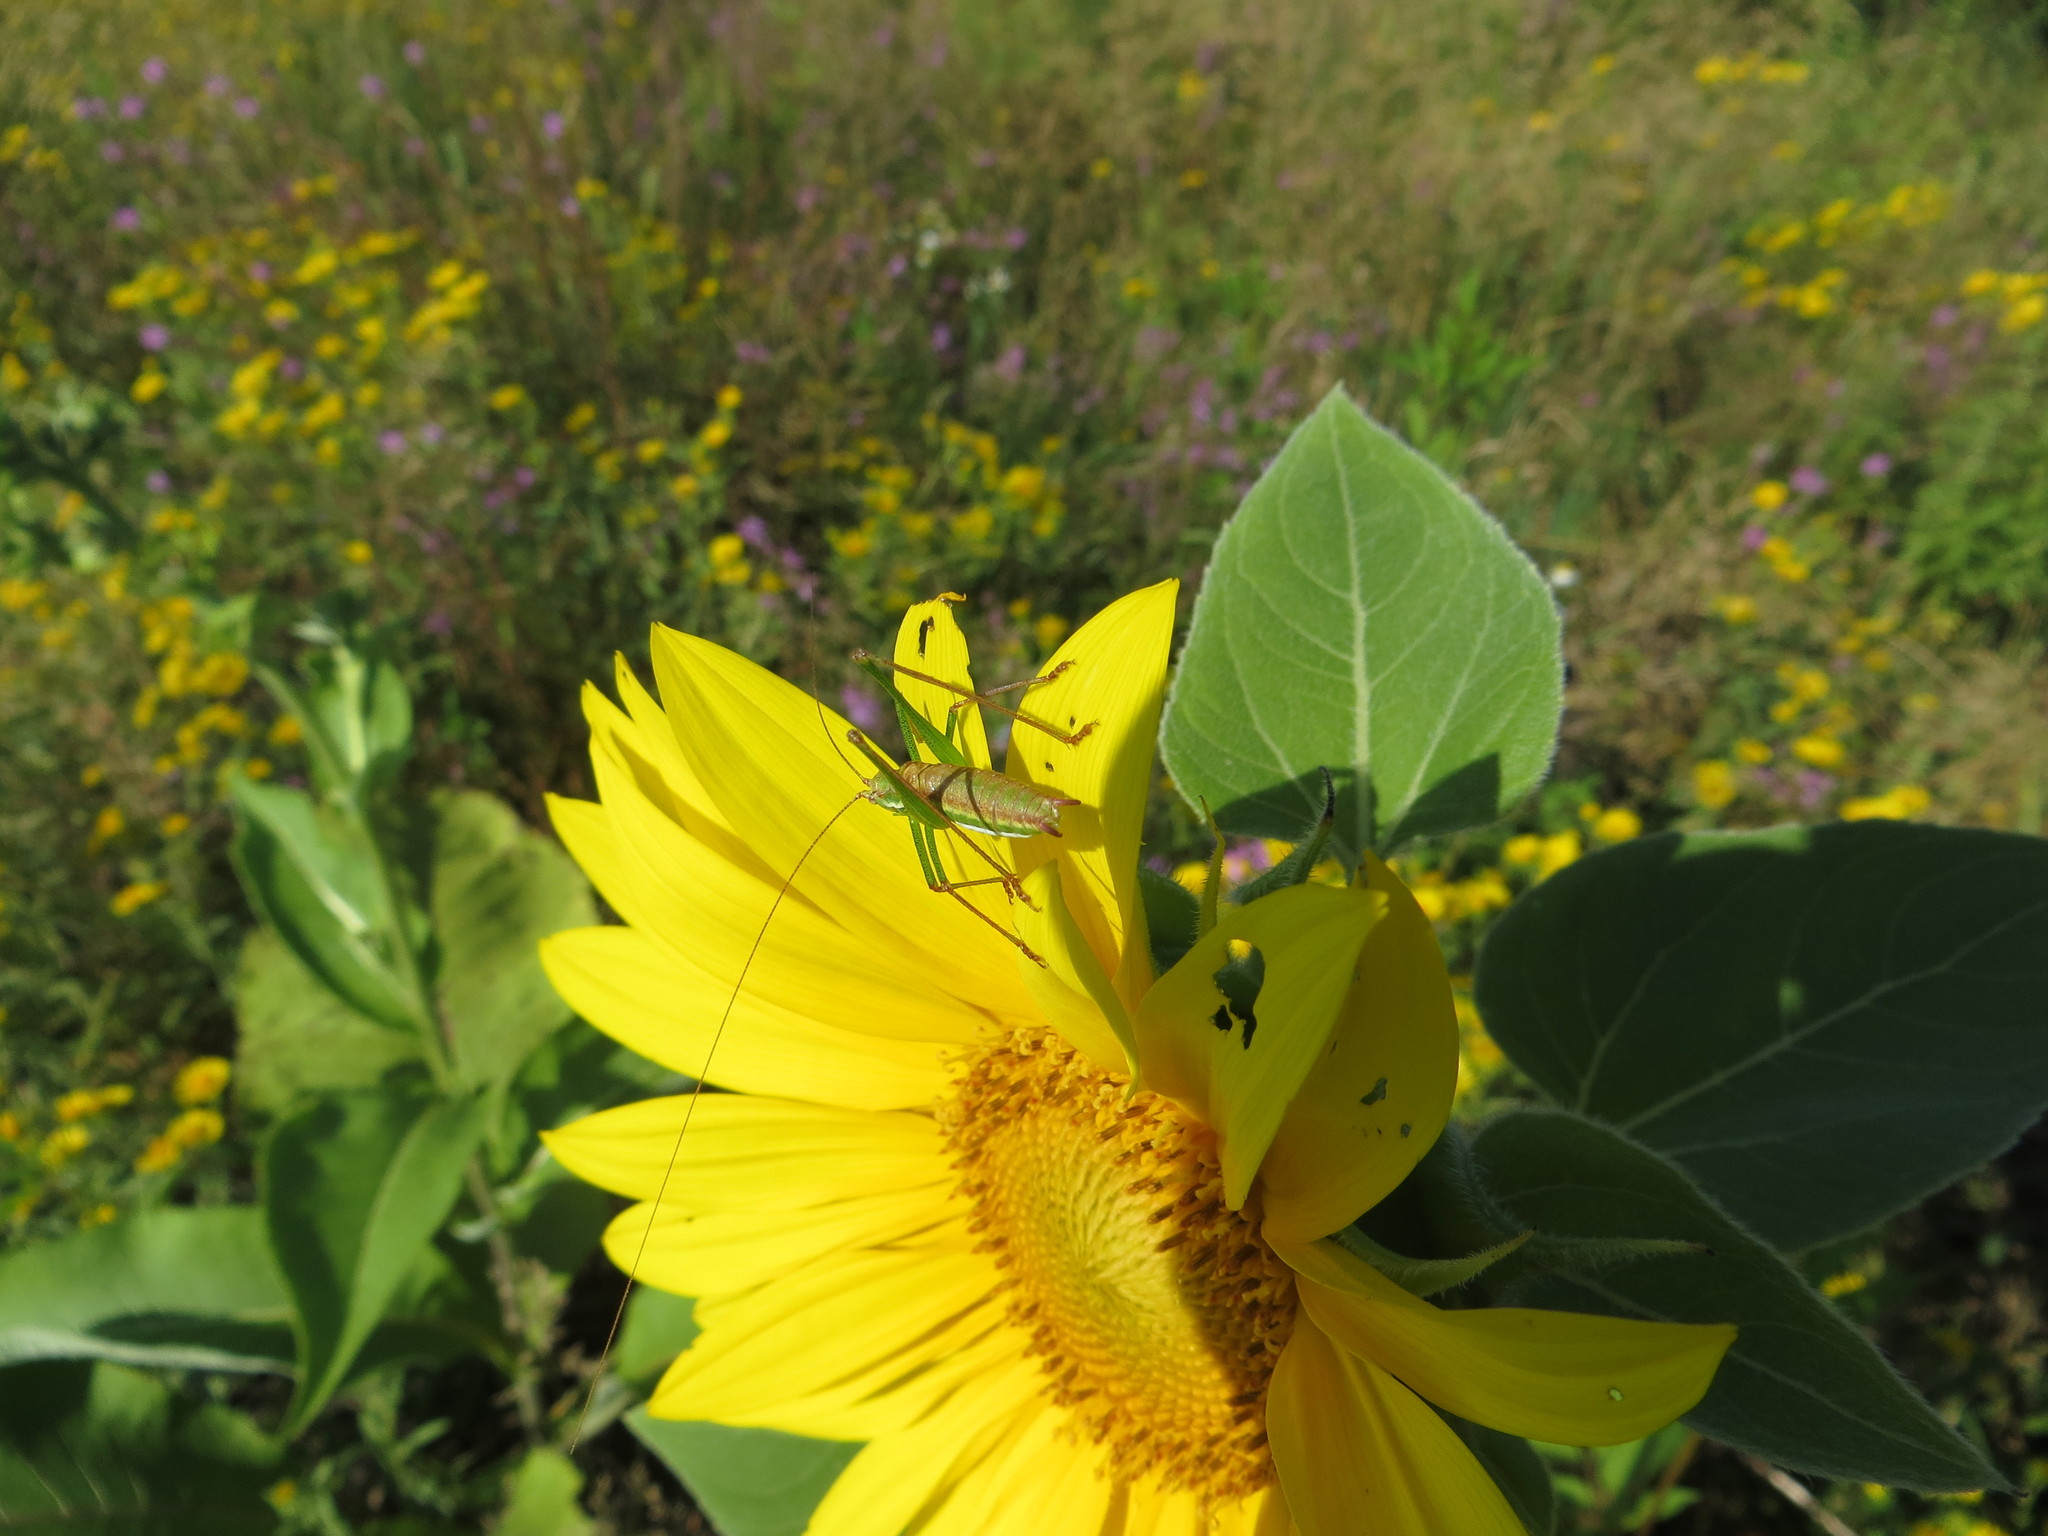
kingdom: Animalia
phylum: Arthropoda
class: Insecta
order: Orthoptera
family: Tettigoniidae
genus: Leptophyes
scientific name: Leptophyes albovittata
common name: Striped bush-cricket
